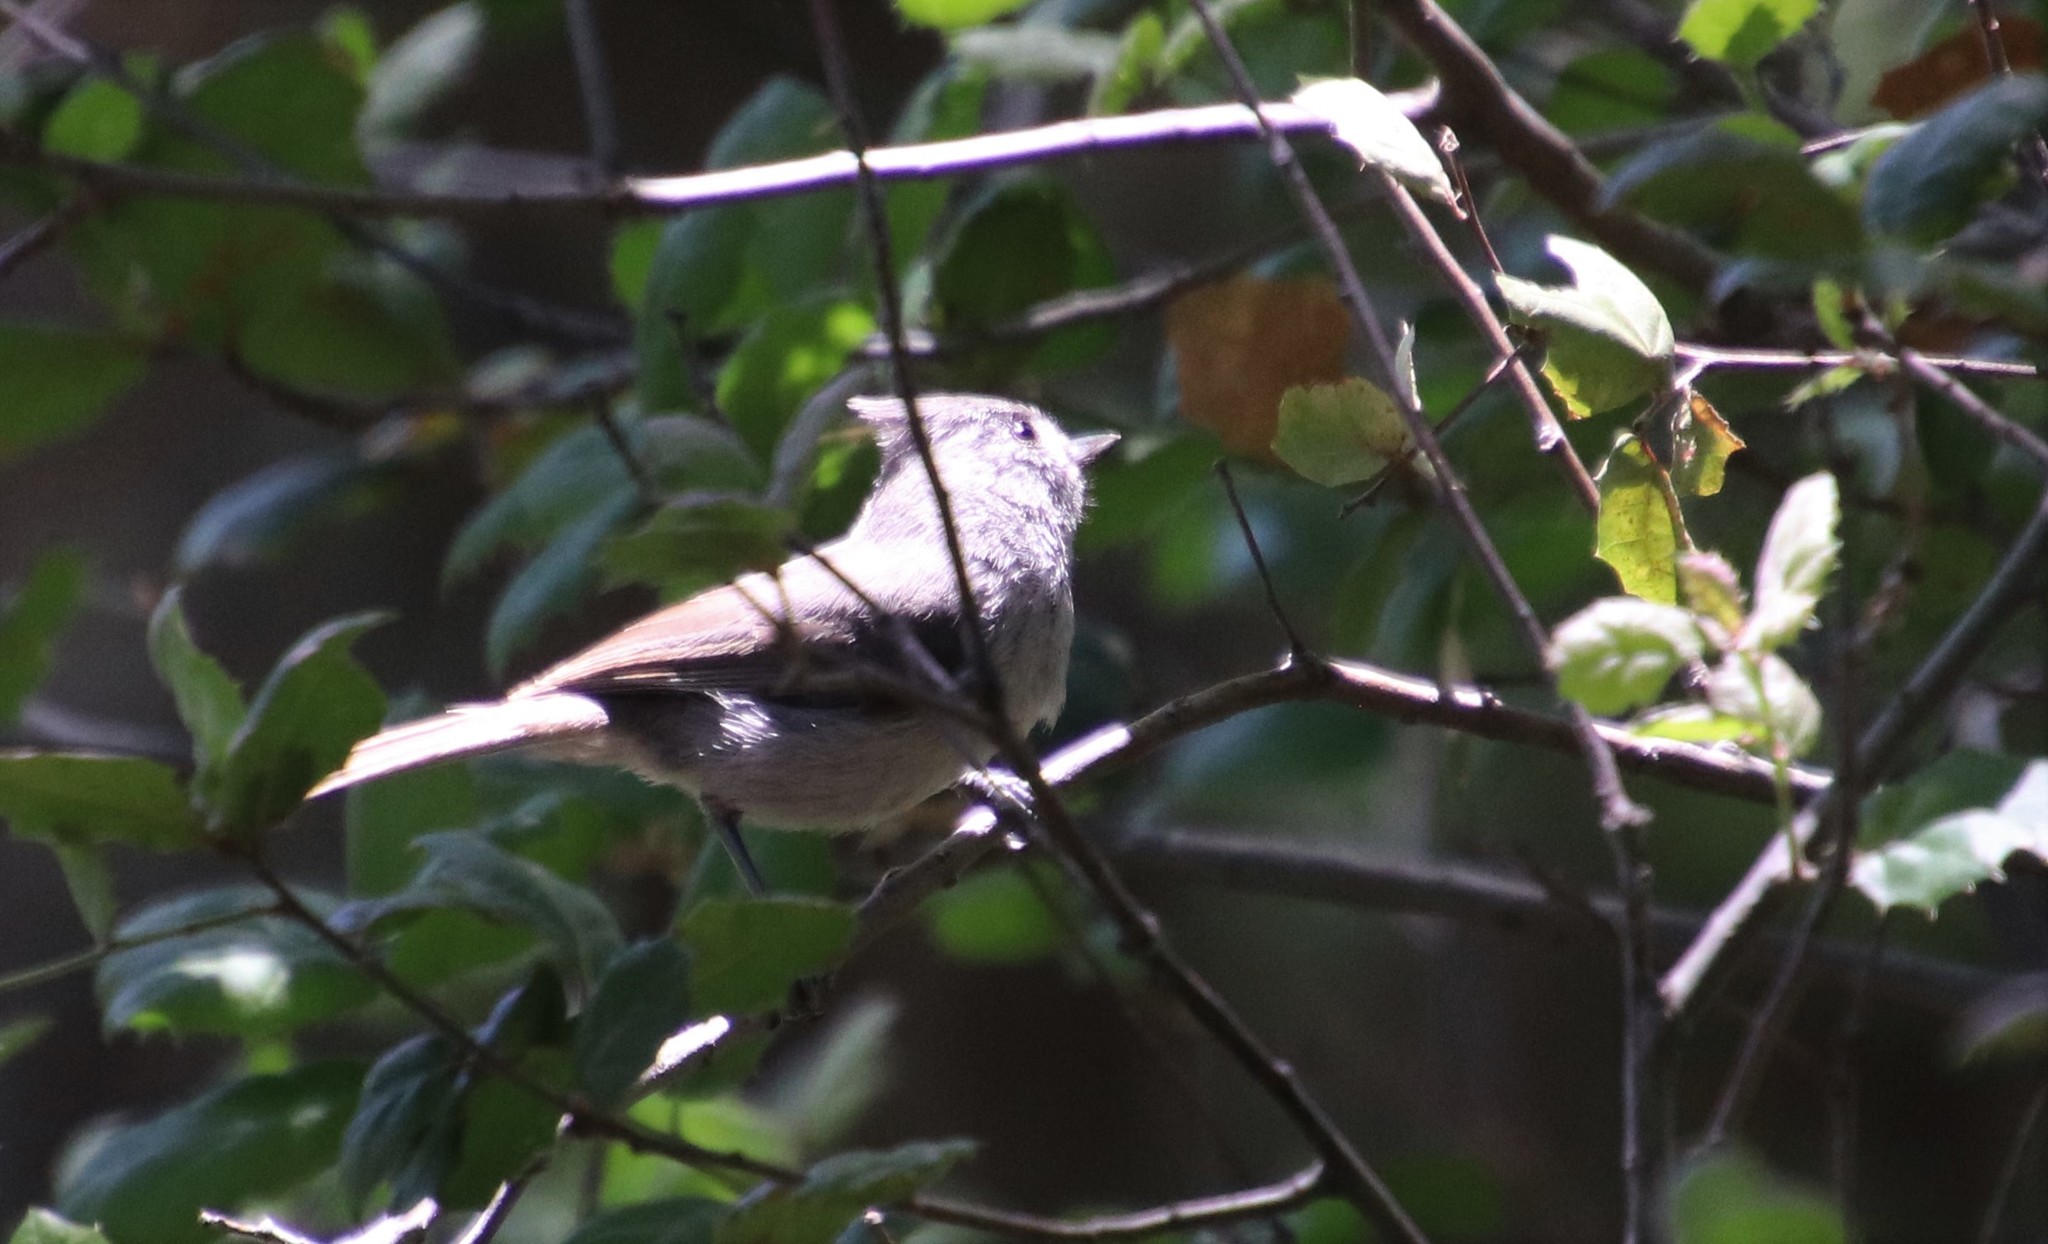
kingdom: Animalia
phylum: Chordata
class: Aves
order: Passeriformes
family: Paridae
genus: Baeolophus
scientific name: Baeolophus inornatus
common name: Oak titmouse
